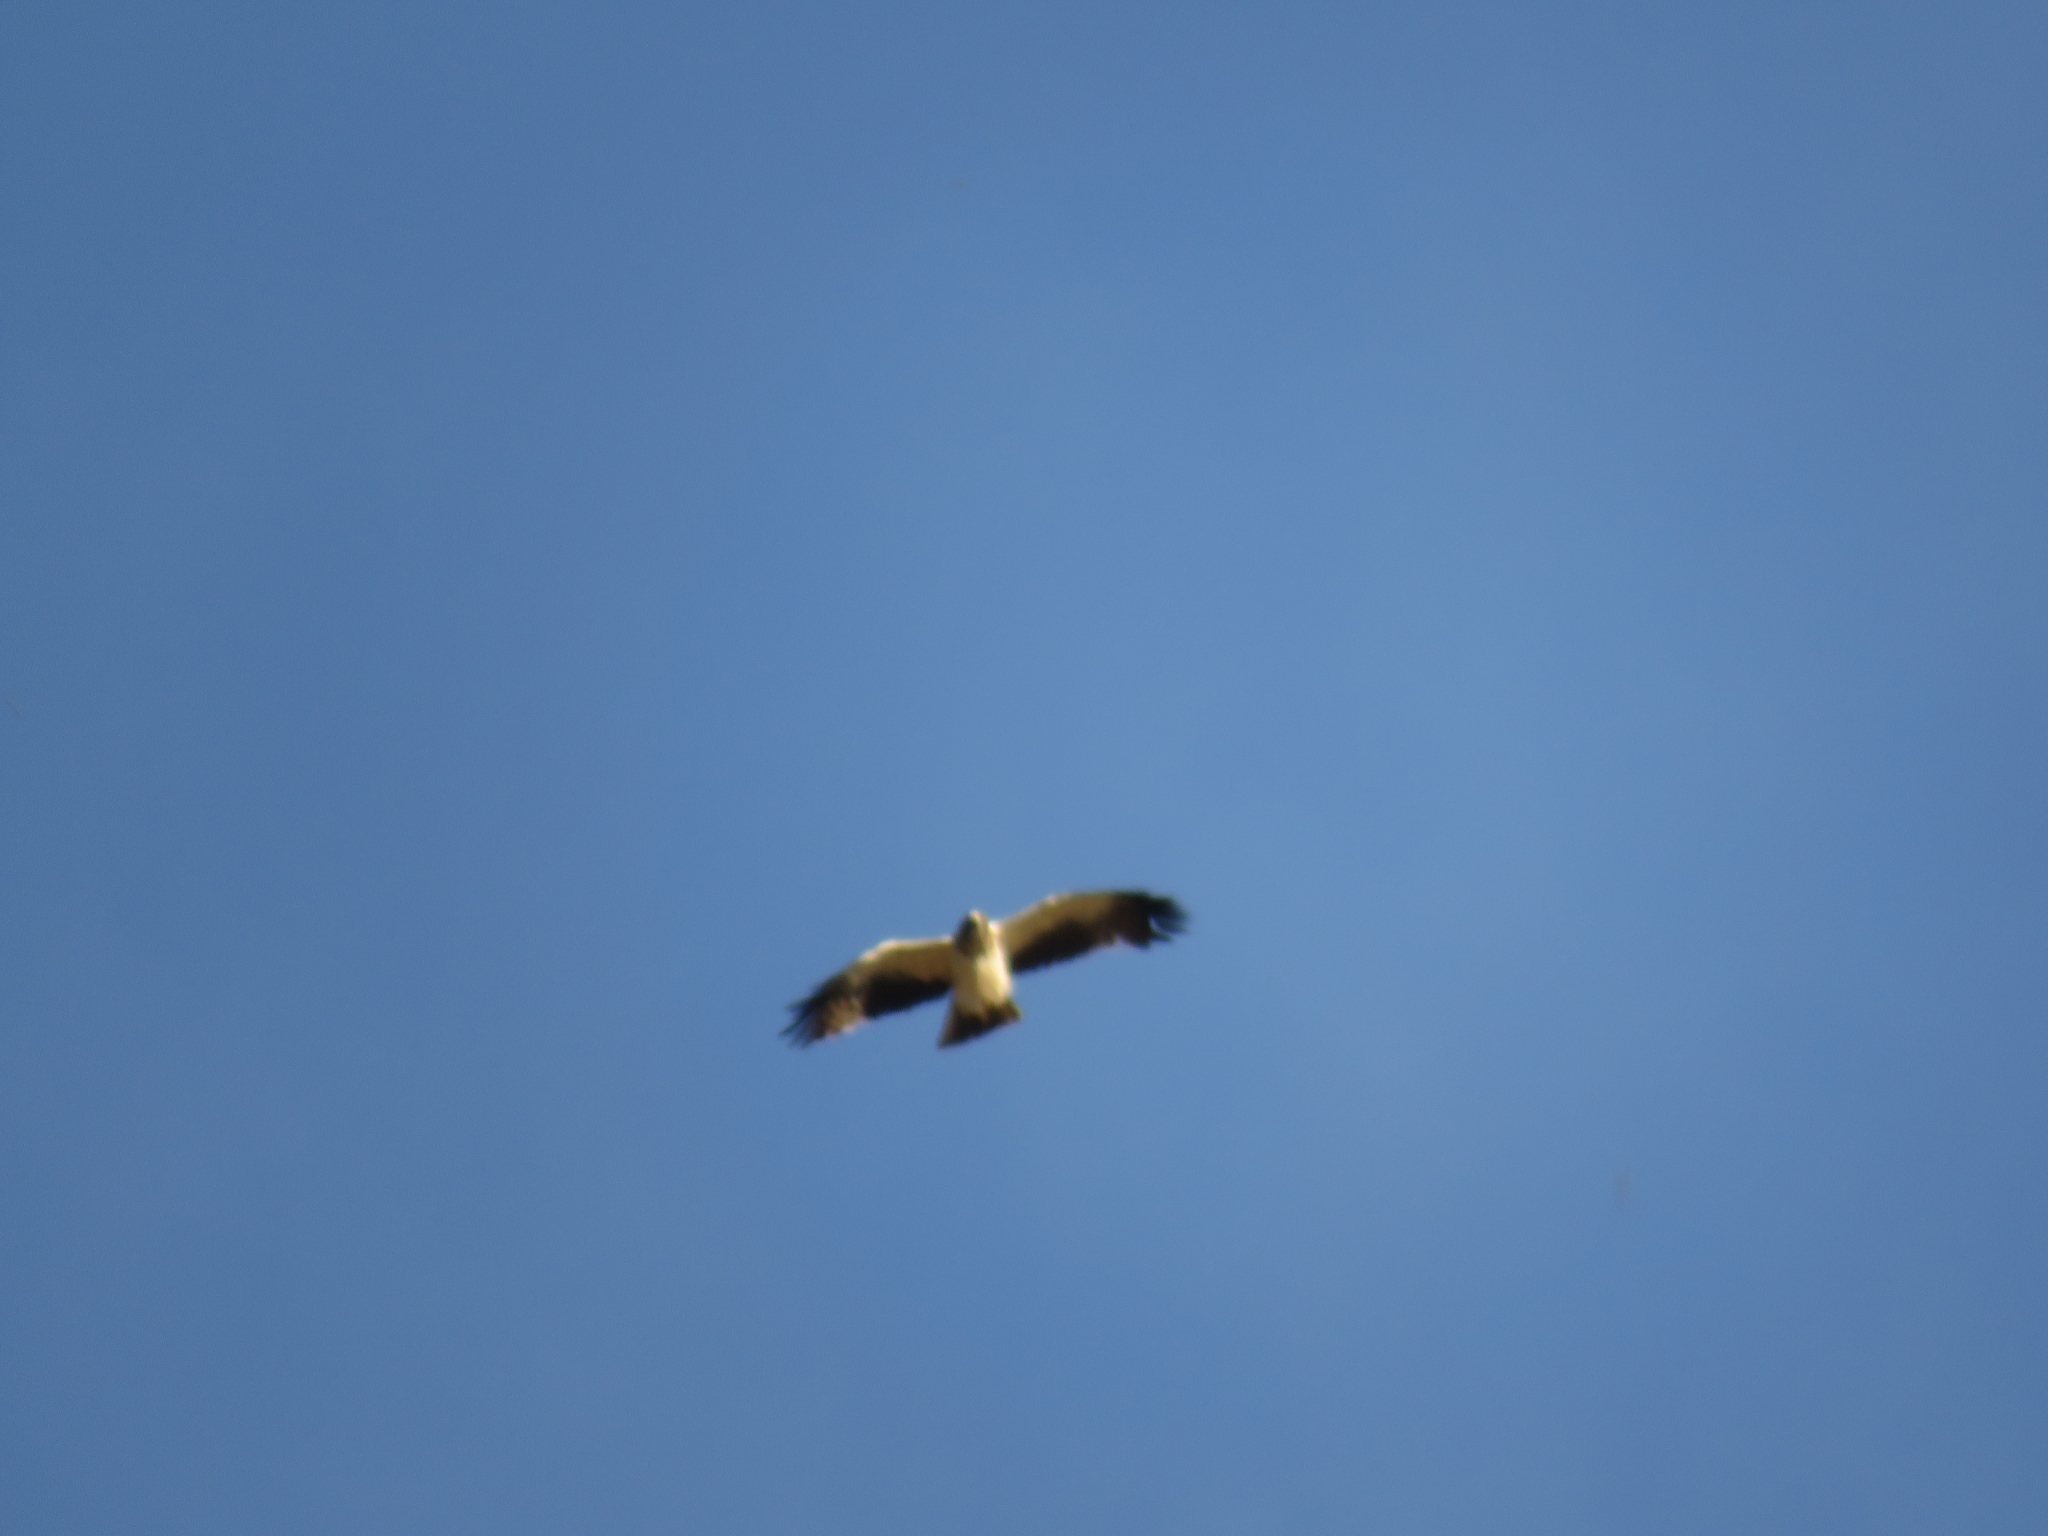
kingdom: Animalia
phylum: Chordata
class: Aves
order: Accipitriformes
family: Accipitridae
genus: Hieraaetus
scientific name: Hieraaetus pennatus
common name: Booted eagle
